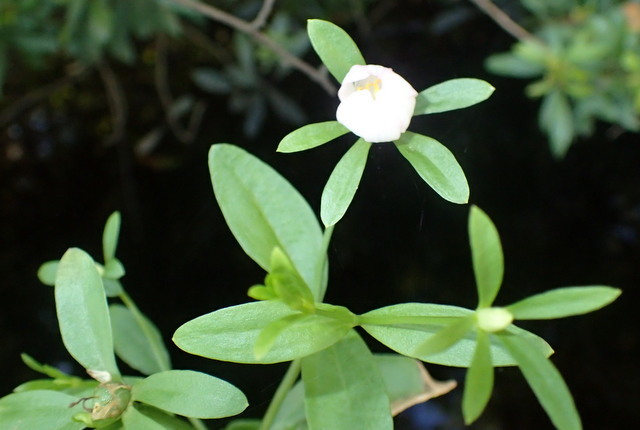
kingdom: Plantae
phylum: Tracheophyta
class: Magnoliopsida
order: Gentianales
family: Gentianaceae
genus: Sabatia
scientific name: Sabatia calycina
